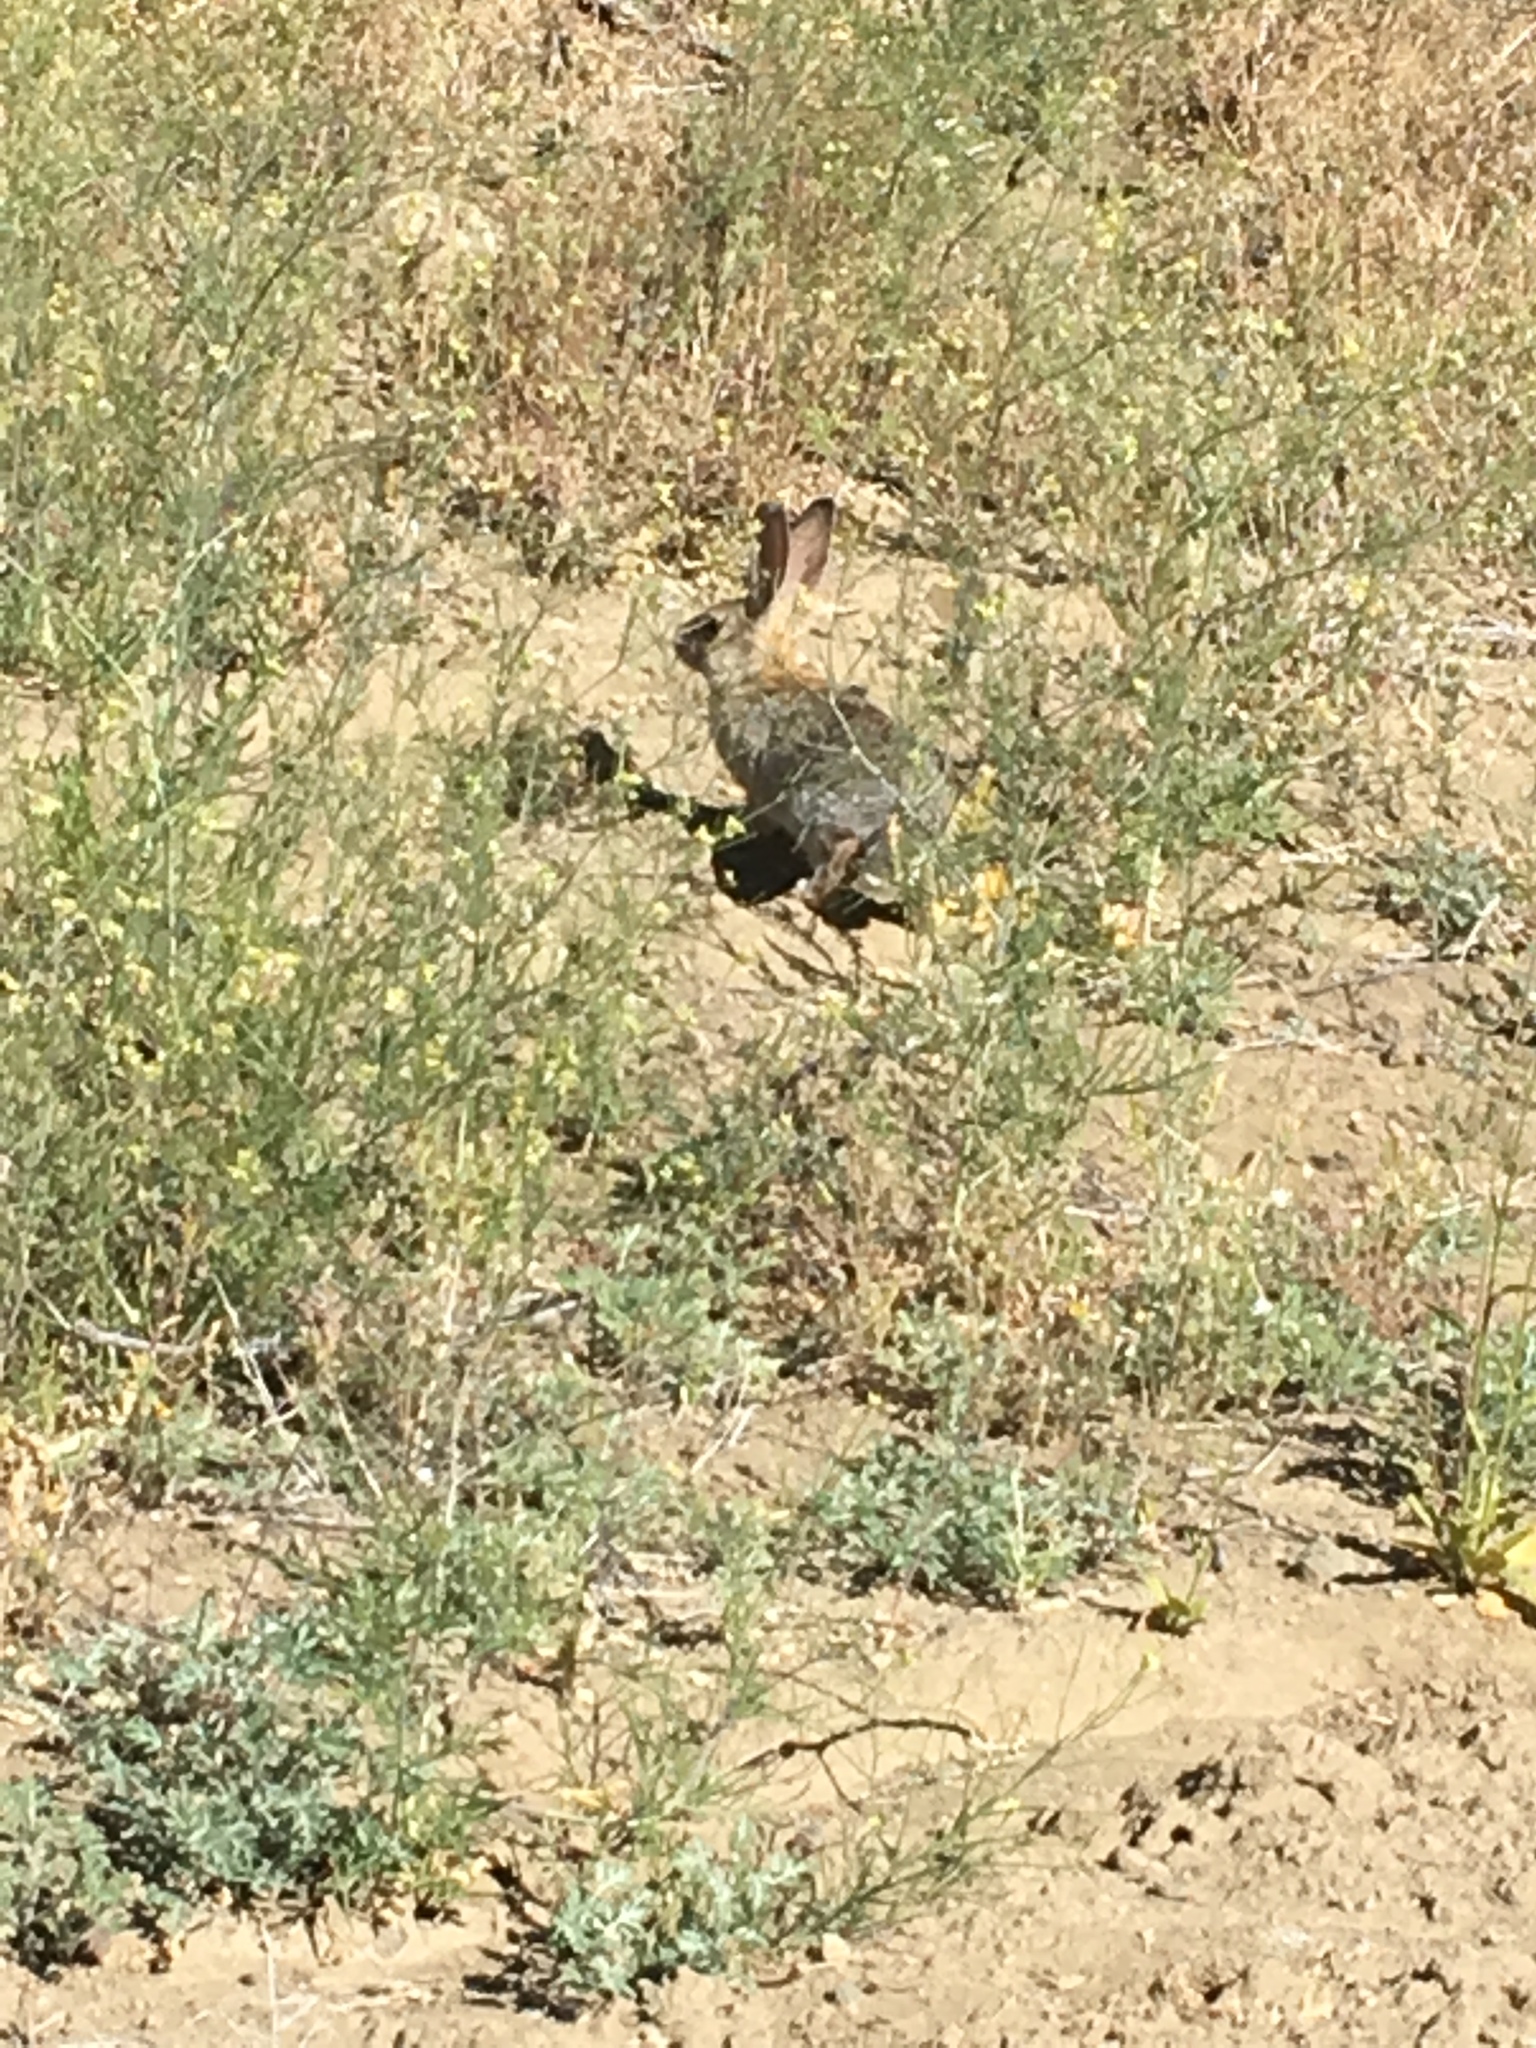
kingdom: Animalia
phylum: Chordata
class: Mammalia
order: Lagomorpha
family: Leporidae
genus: Sylvilagus
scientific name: Sylvilagus audubonii
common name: Desert cottontail
